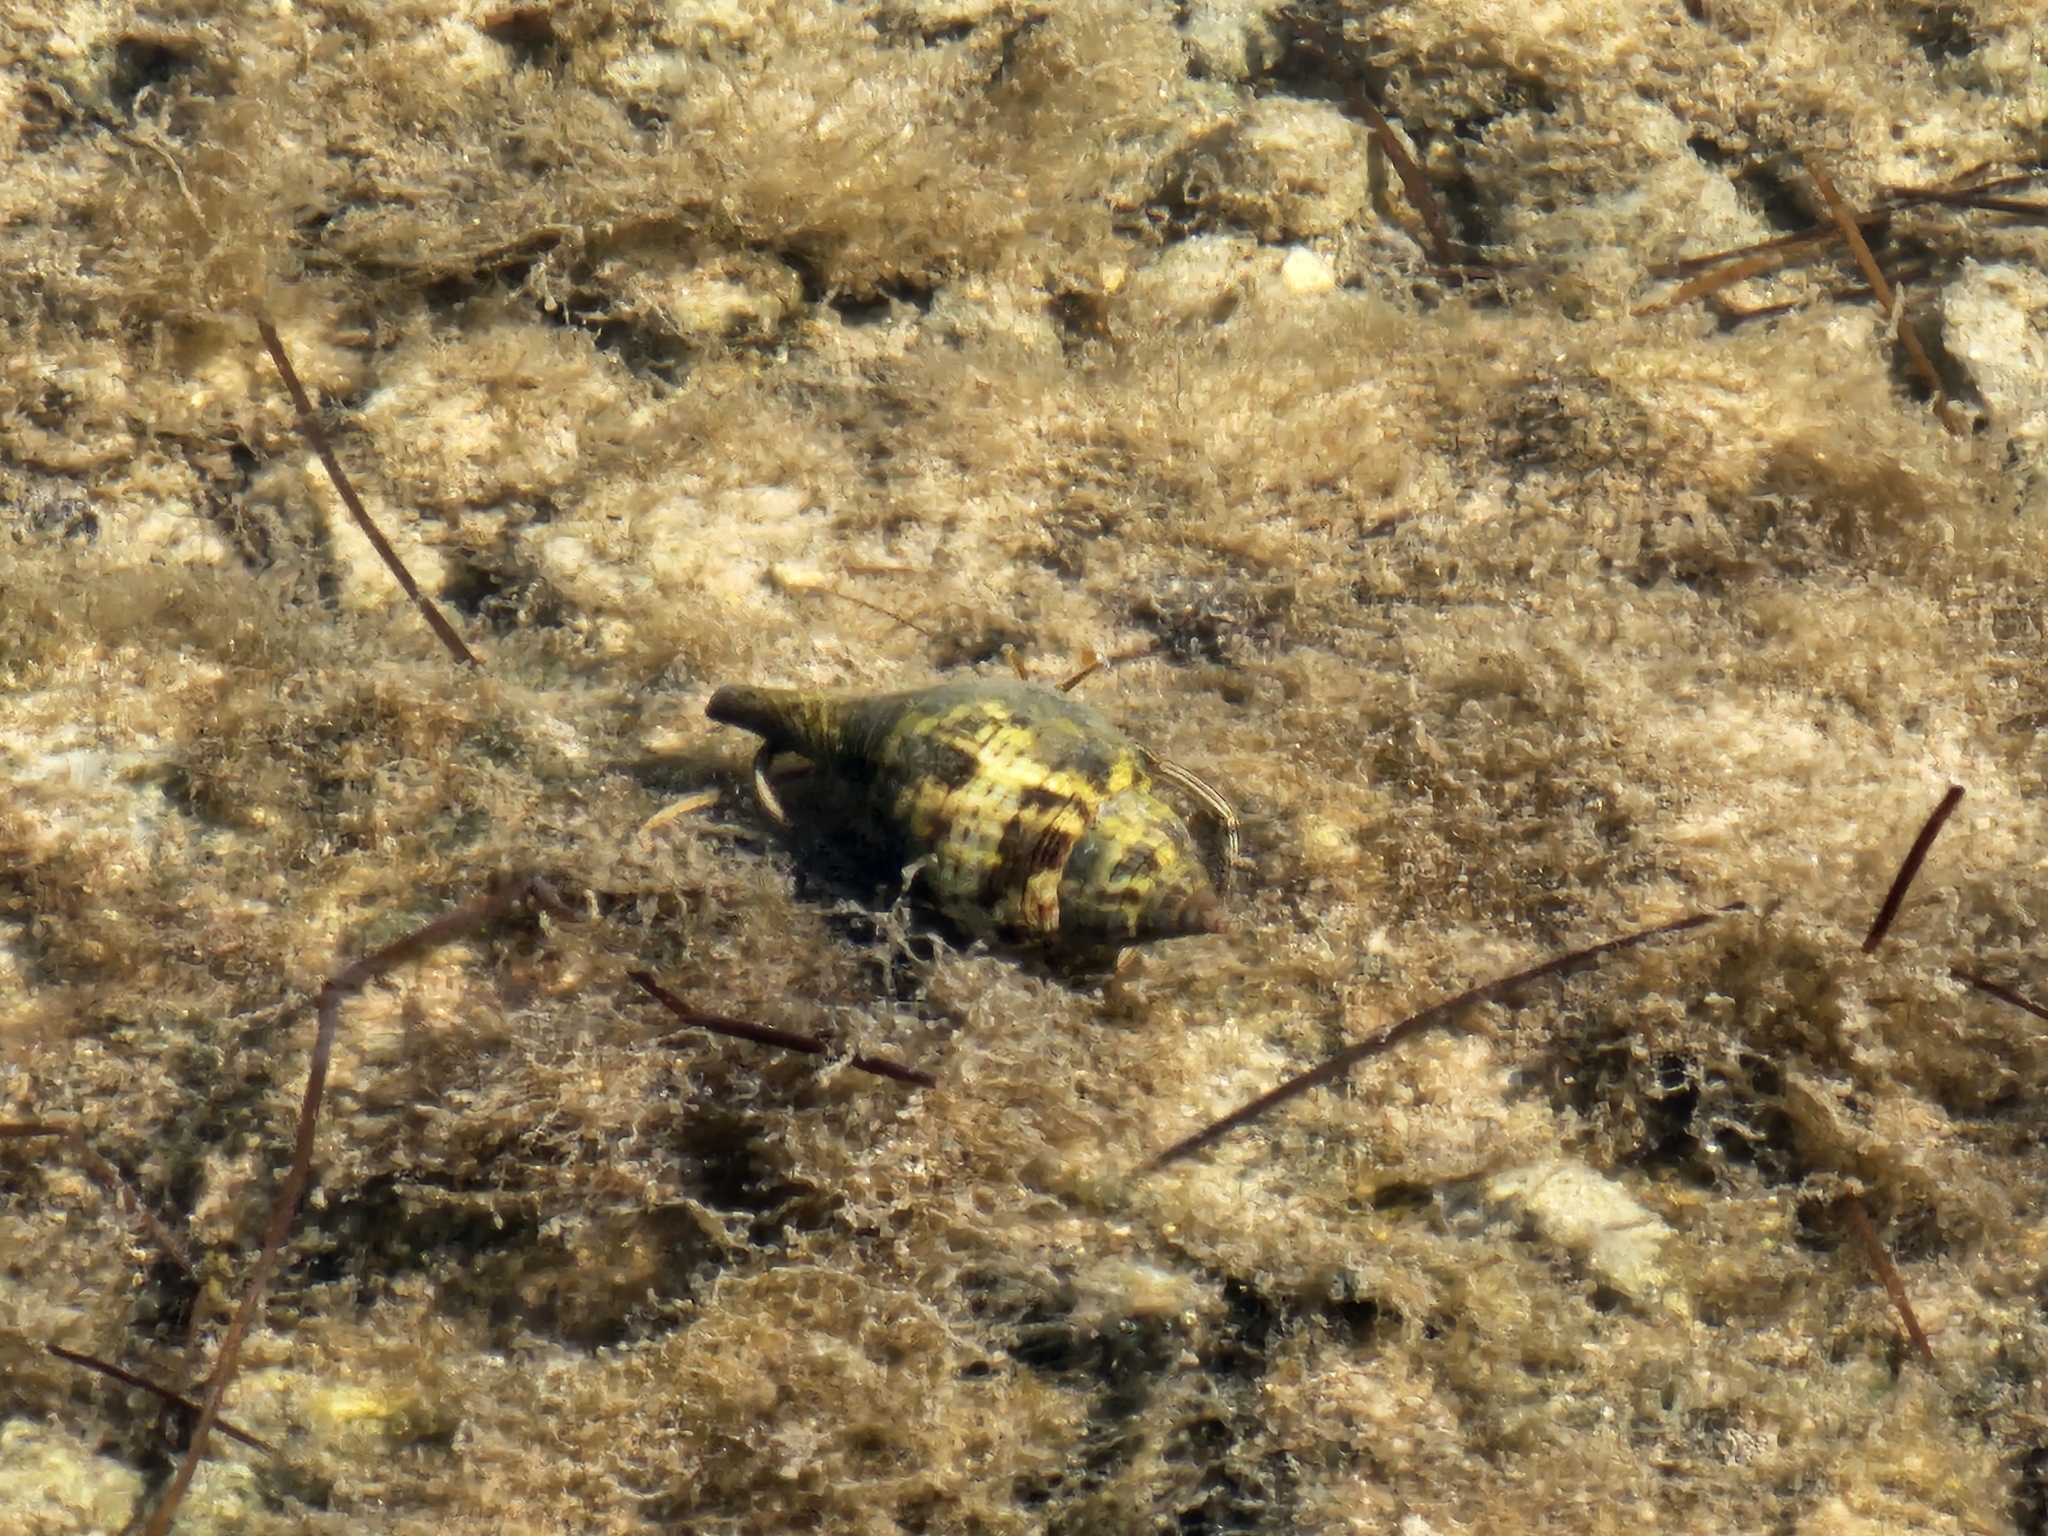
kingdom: Animalia
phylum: Arthropoda
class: Malacostraca
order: Decapoda
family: Diogenidae
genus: Clibanarius
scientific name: Clibanarius vittatus
